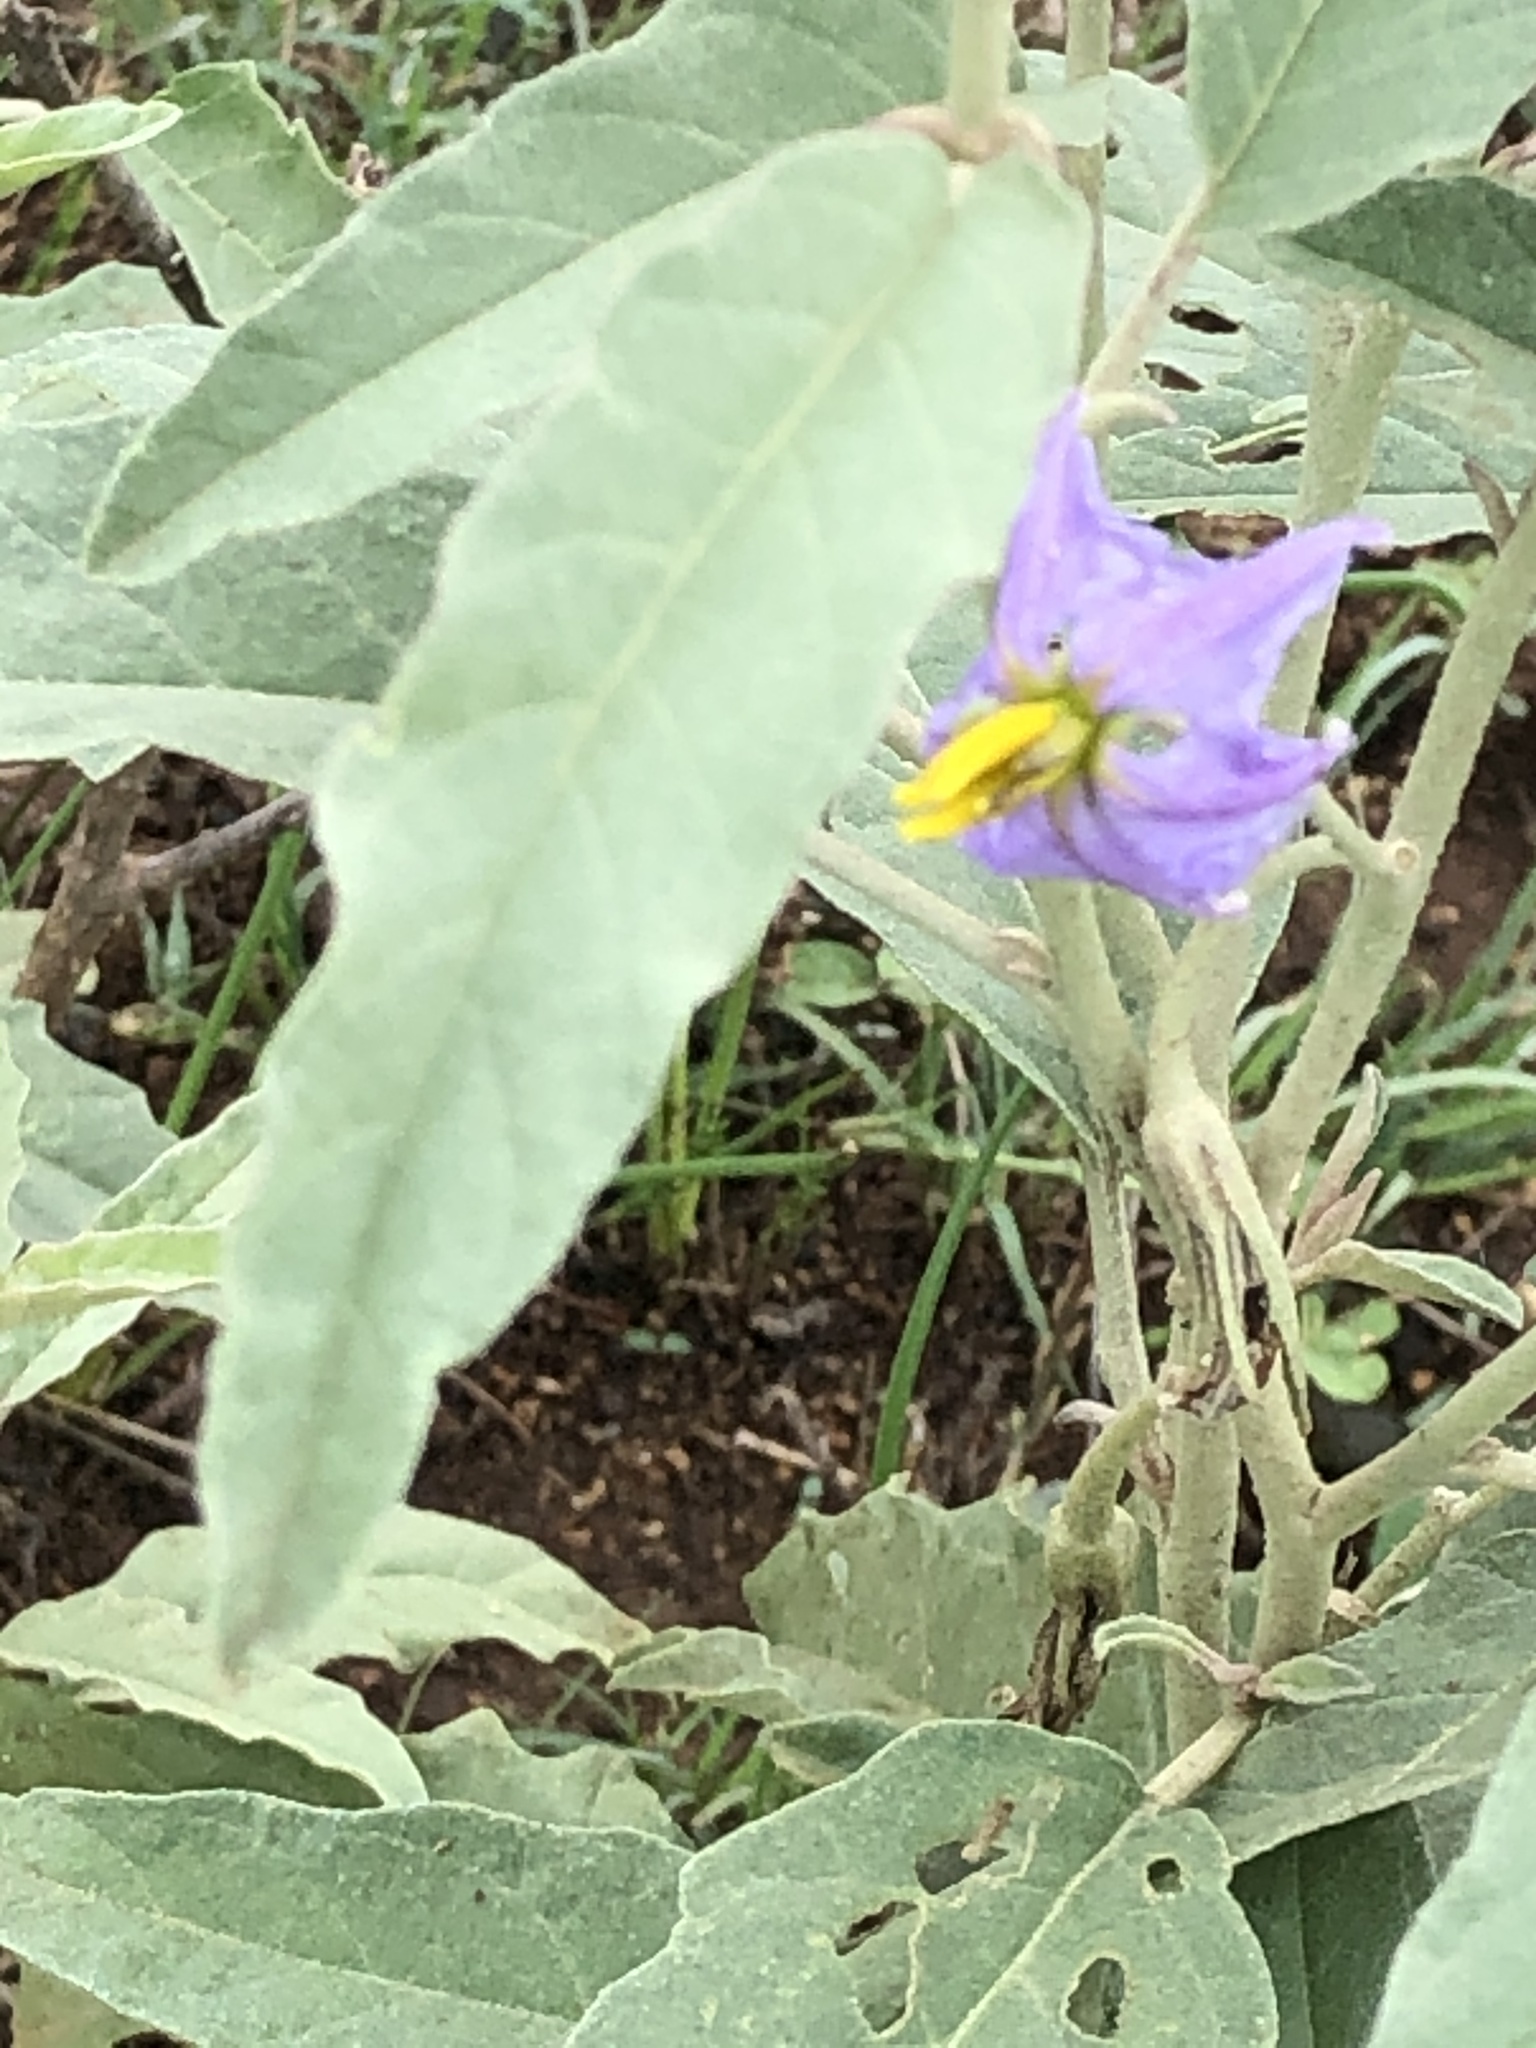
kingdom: Plantae
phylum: Tracheophyta
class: Magnoliopsida
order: Solanales
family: Solanaceae
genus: Solanum
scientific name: Solanum elaeagnifolium
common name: Silverleaf nightshade
